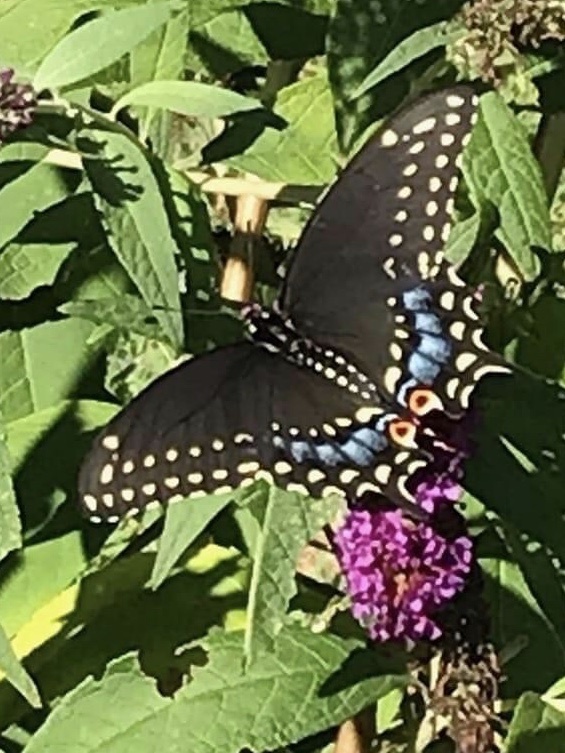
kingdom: Animalia
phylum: Arthropoda
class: Insecta
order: Lepidoptera
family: Papilionidae
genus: Papilio
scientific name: Papilio polyxenes
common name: Black swallowtail
